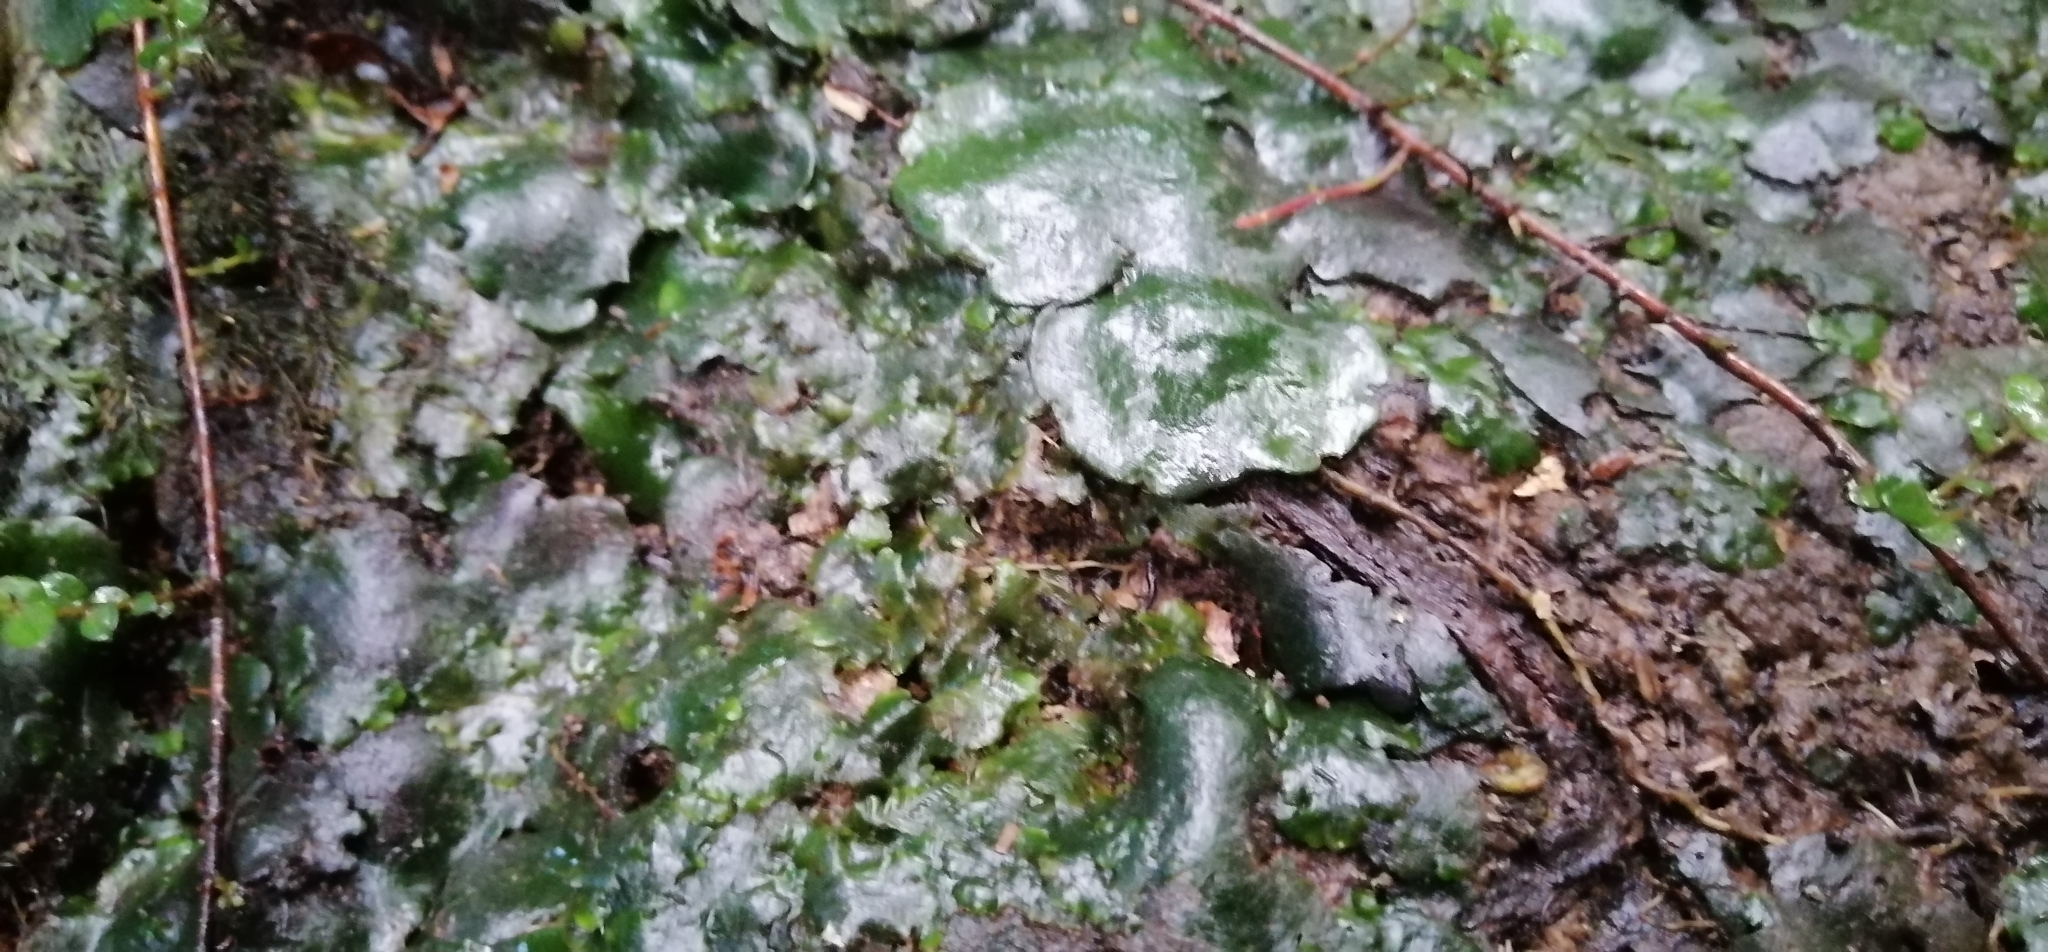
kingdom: Plantae
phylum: Marchantiophyta
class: Marchantiopsida
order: Marchantiales
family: Monocleaceae
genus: Monoclea
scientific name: Monoclea forsteri
